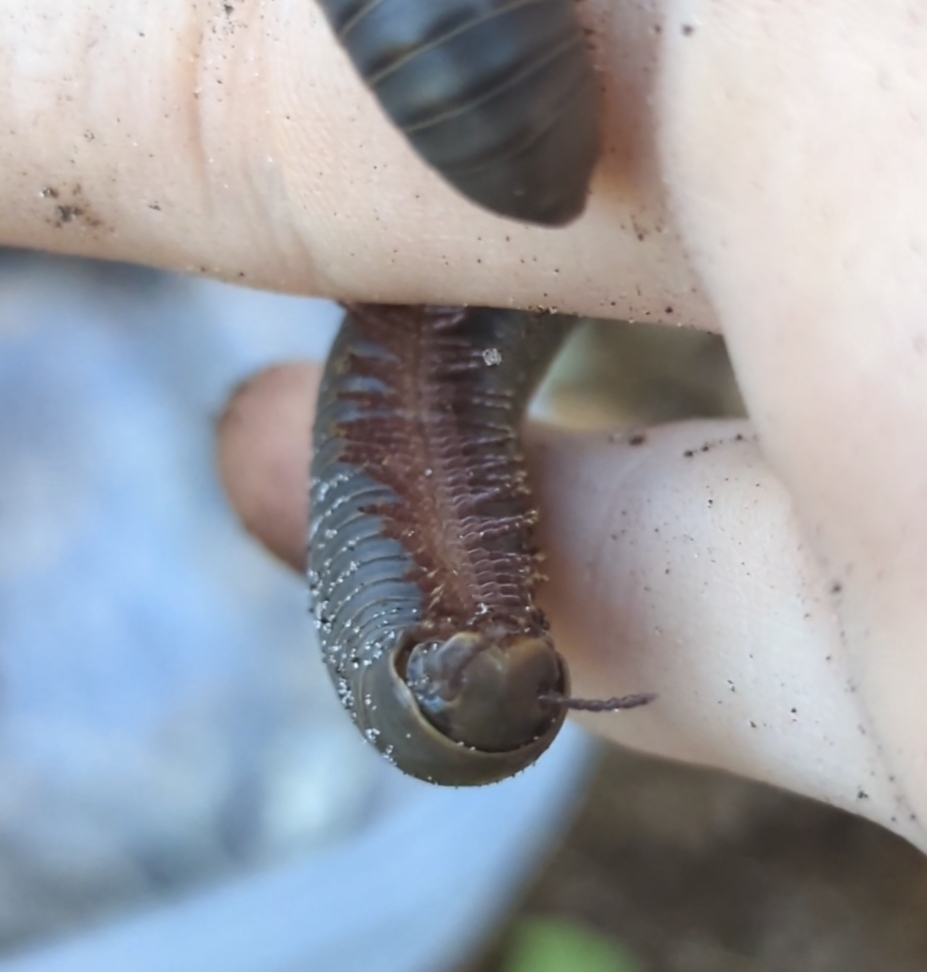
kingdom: Animalia
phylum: Arthropoda
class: Diplopoda
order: Spirobolida
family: Spirobolidae
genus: Narceus
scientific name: Narceus gordanus
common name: Grayish-green millipede
